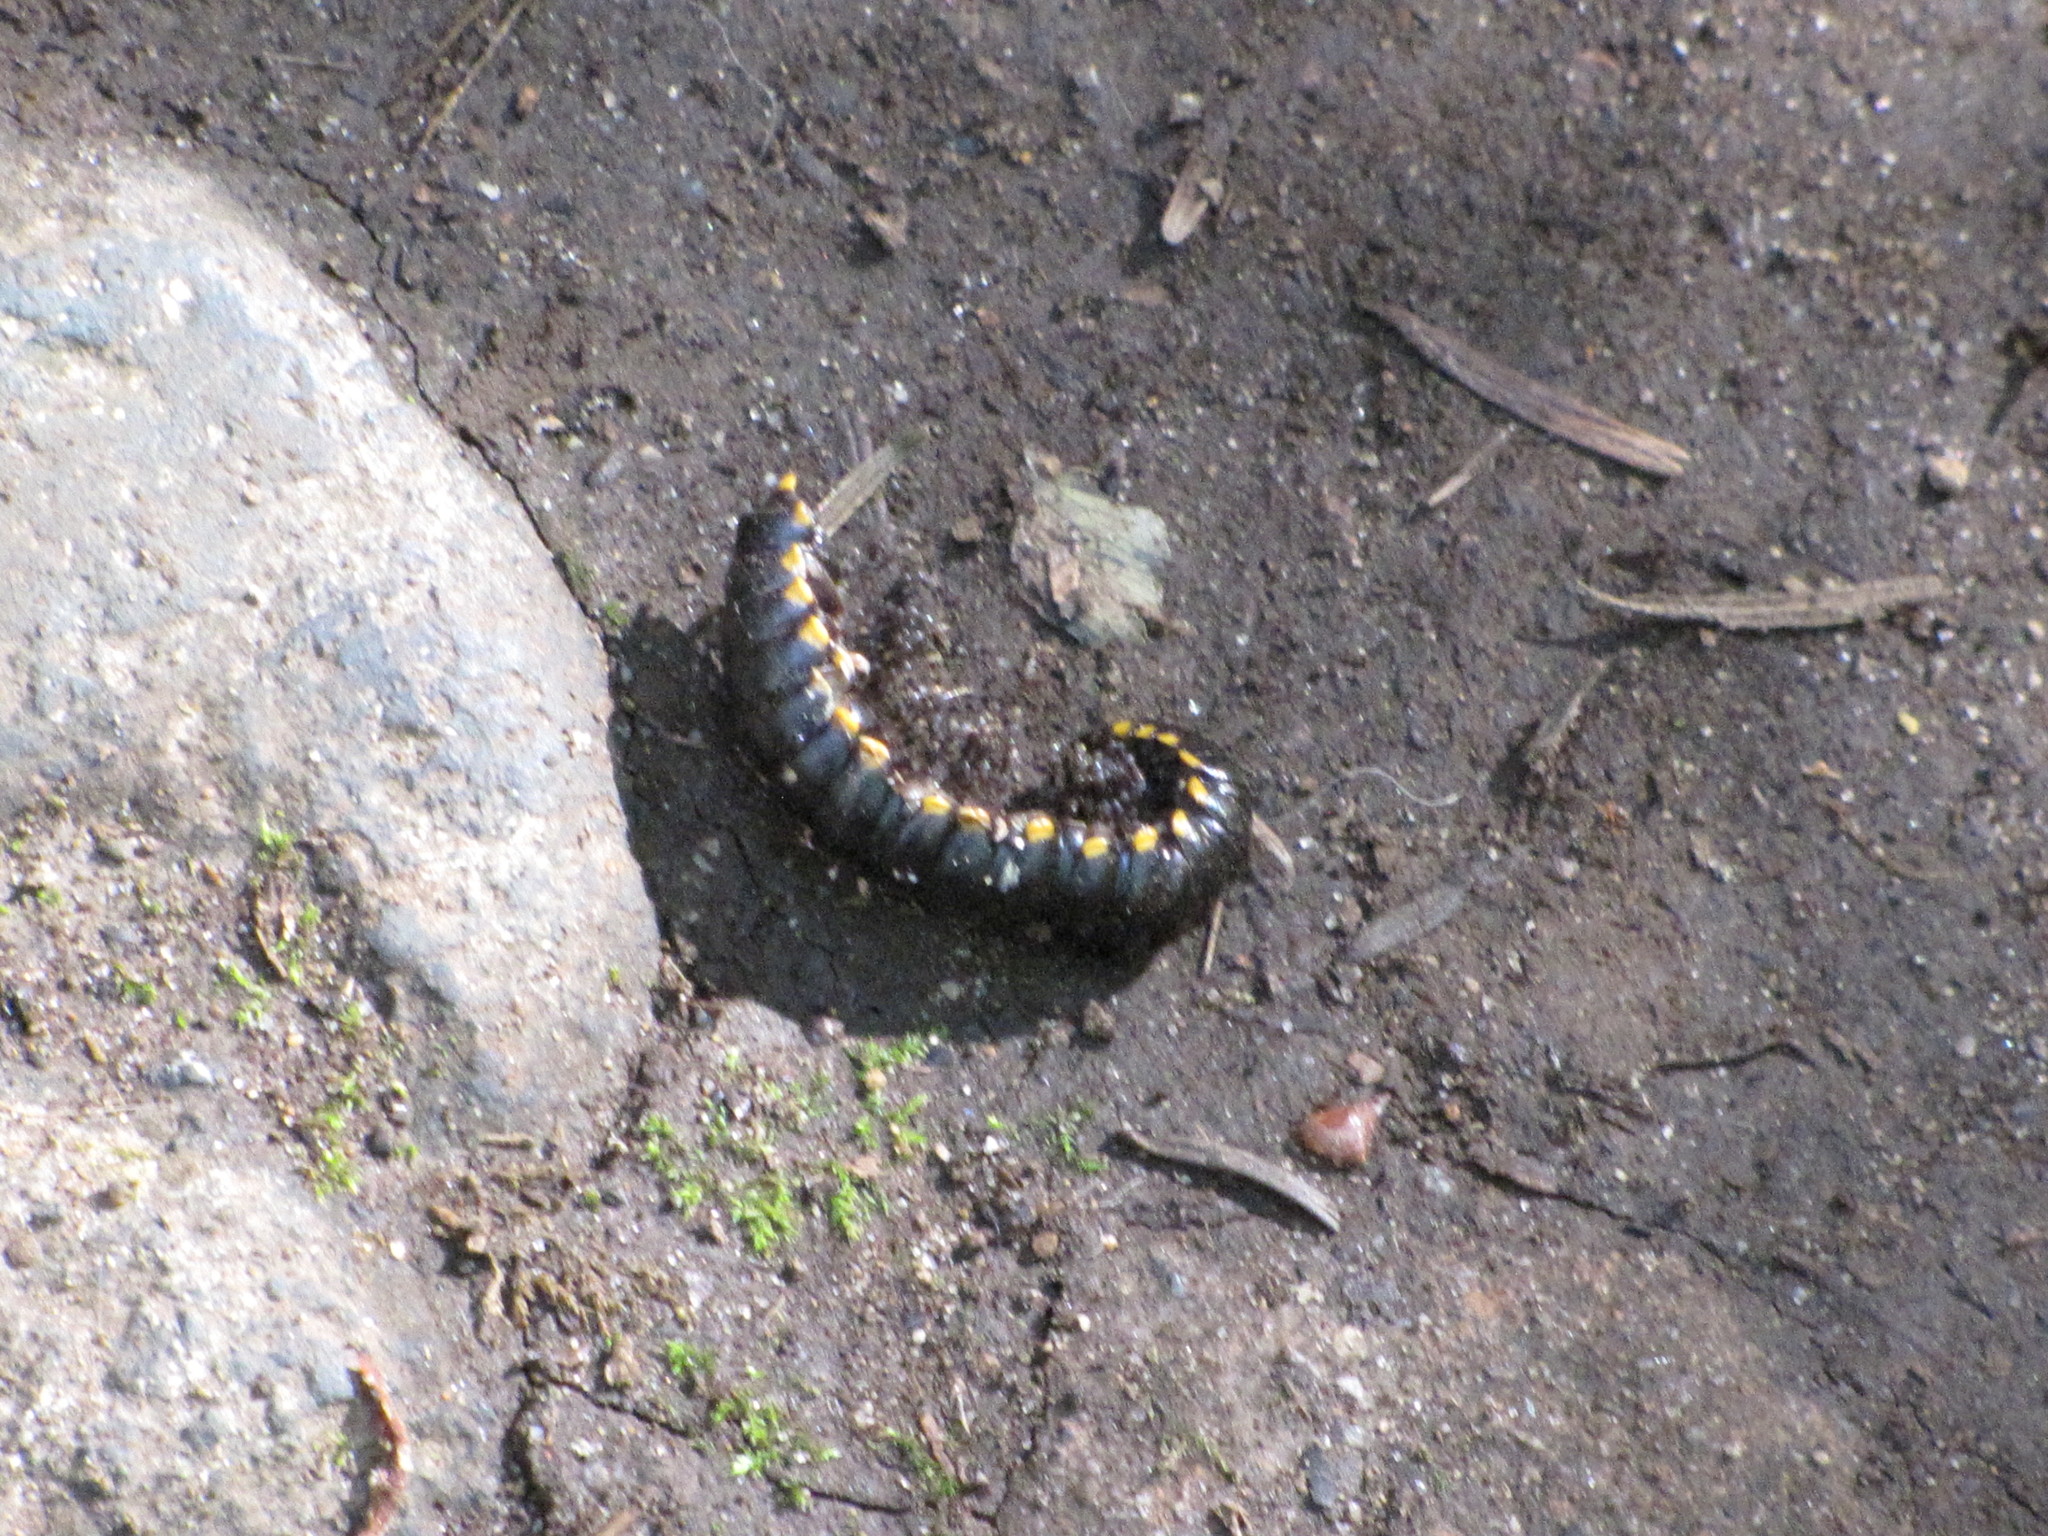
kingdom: Animalia
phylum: Arthropoda
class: Diplopoda
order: Polydesmida
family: Xystodesmidae
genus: Harpaphe
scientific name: Harpaphe haydeniana
